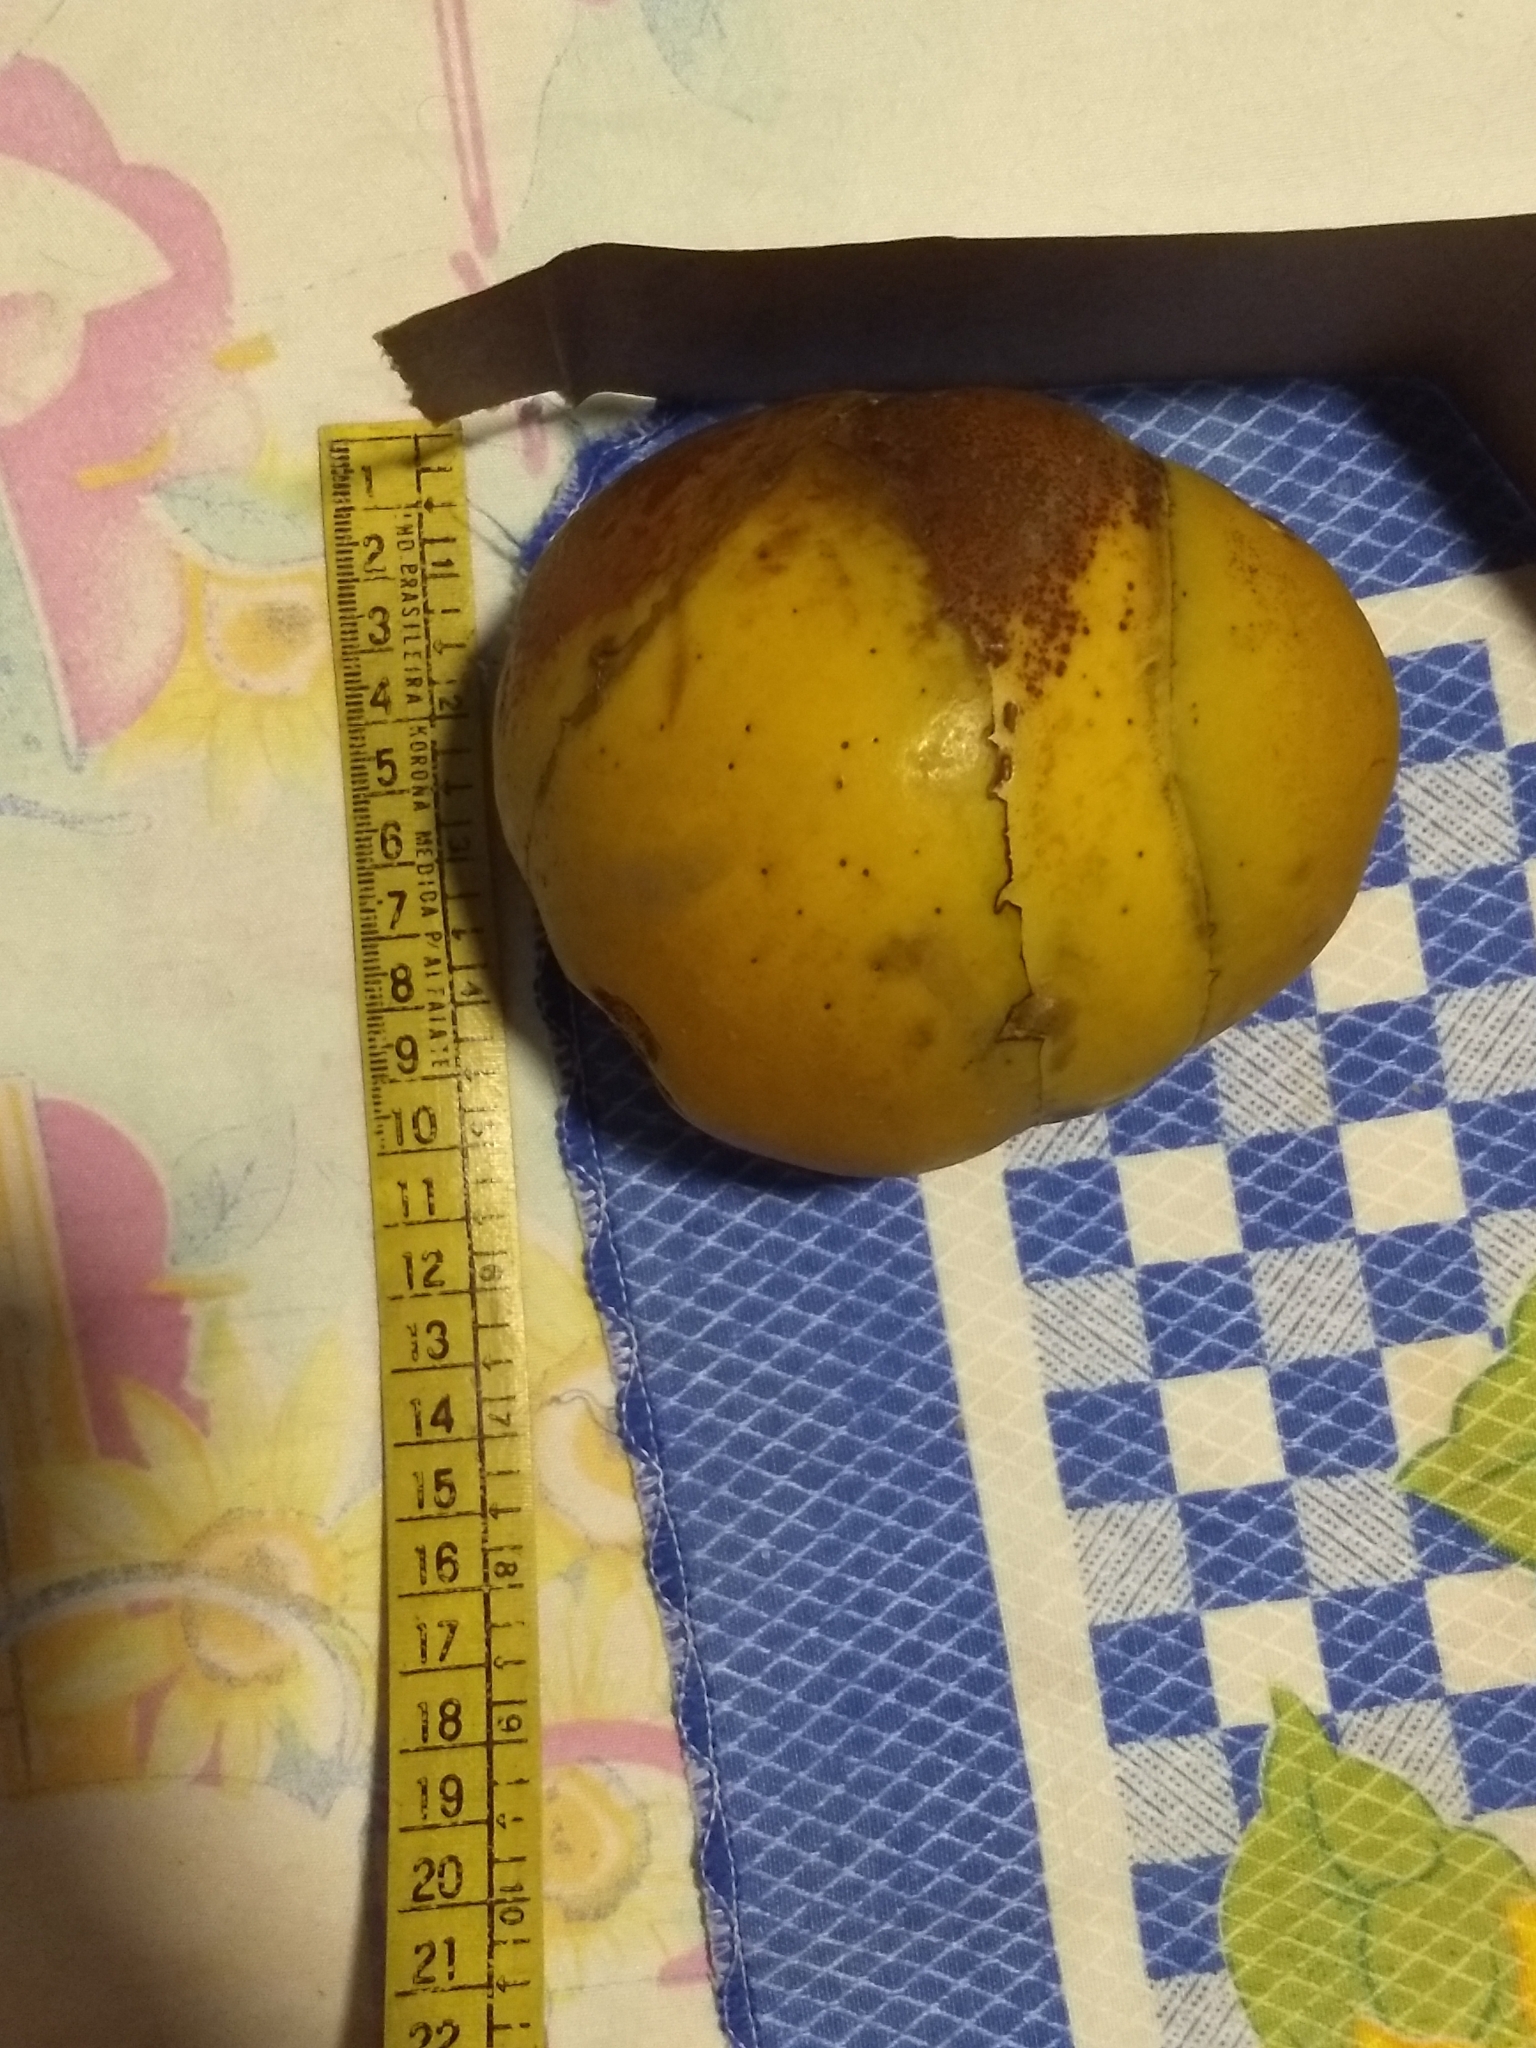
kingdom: Plantae
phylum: Tracheophyta
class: Magnoliopsida
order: Dilleniales
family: Dilleniaceae
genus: Dillenia
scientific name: Dillenia indica
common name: Elephant apple
